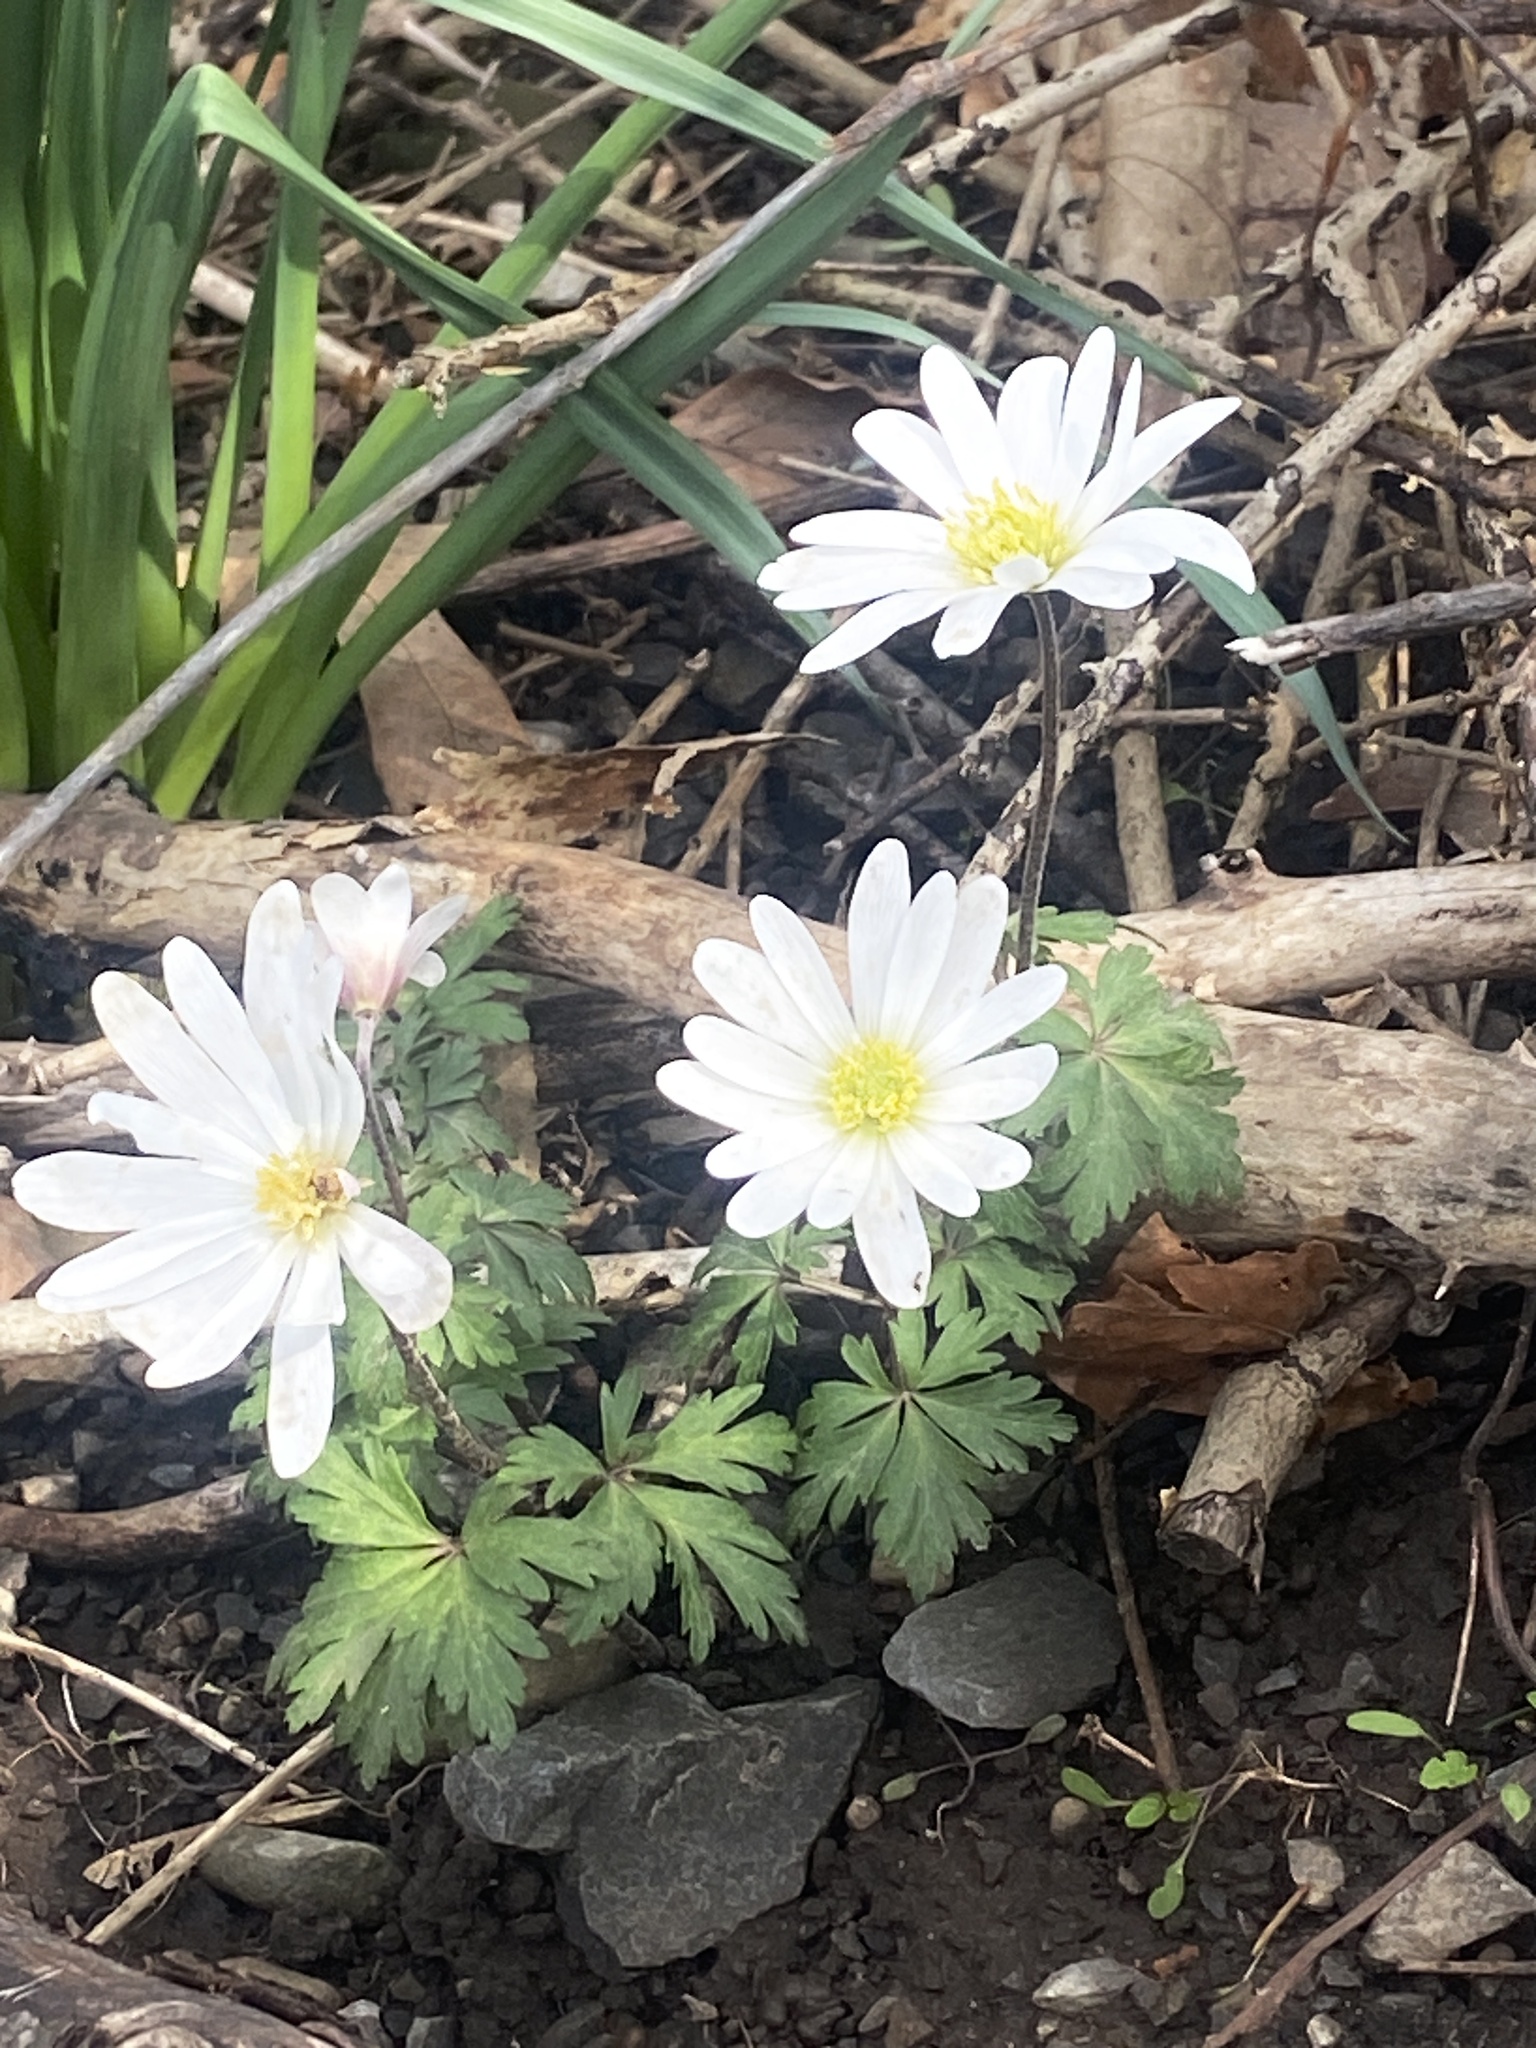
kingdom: Plantae
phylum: Tracheophyta
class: Magnoliopsida
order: Ranunculales
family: Ranunculaceae
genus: Anemone
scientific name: Anemone blanda
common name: Balkan anemone
